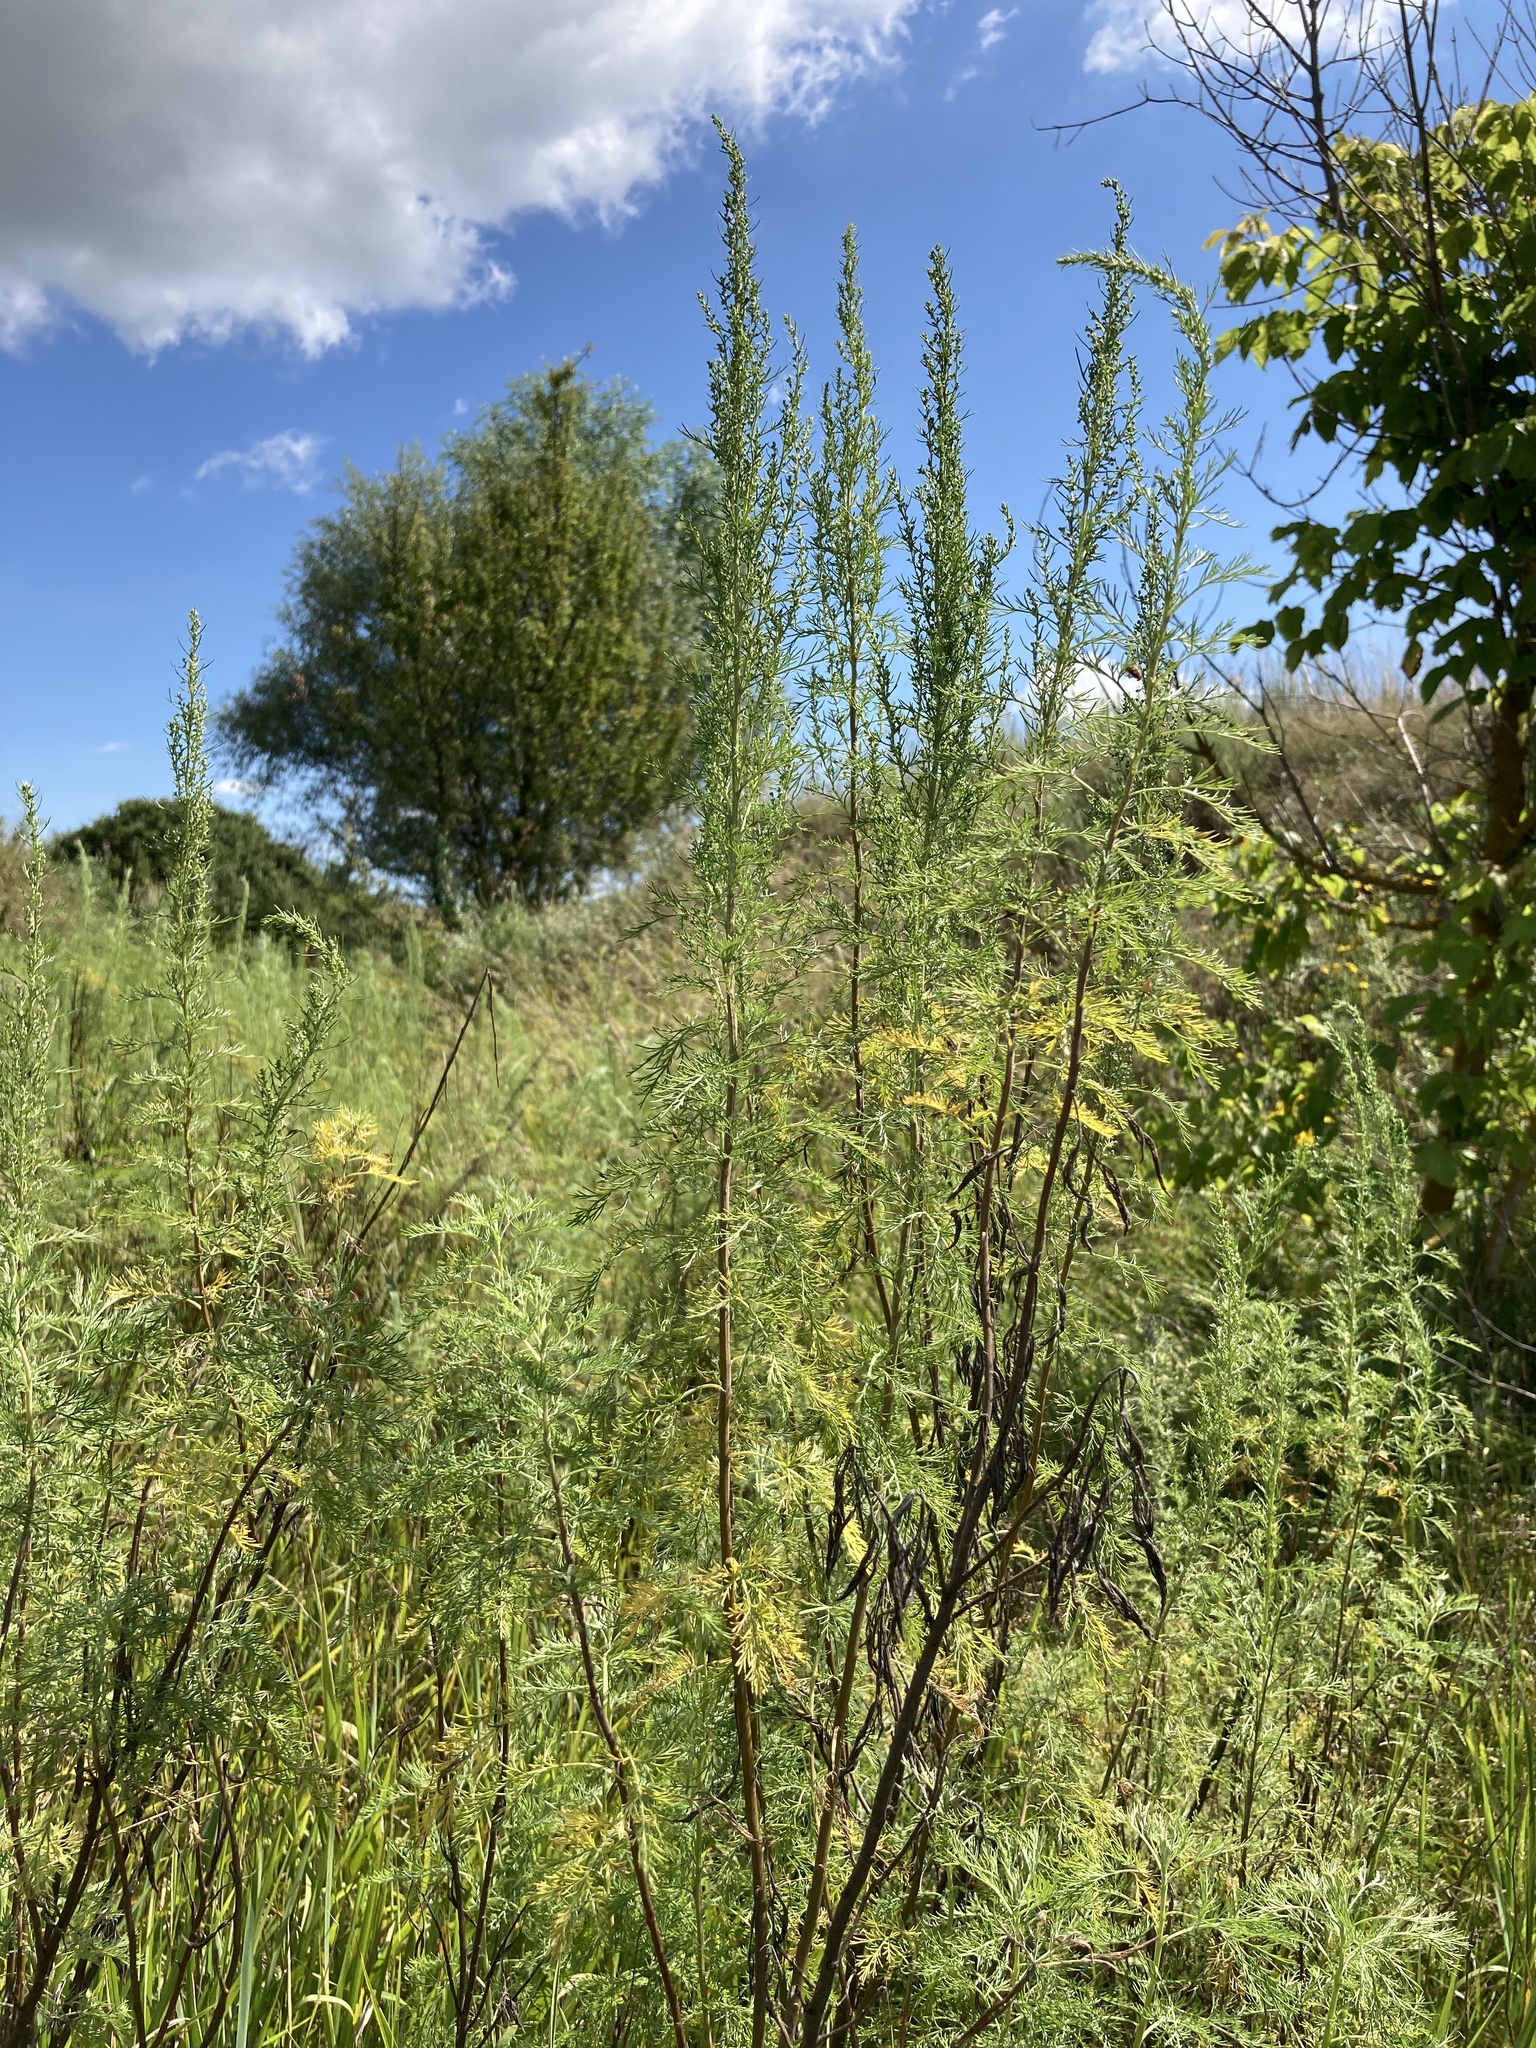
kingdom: Plantae
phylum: Tracheophyta
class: Magnoliopsida
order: Asterales
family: Asteraceae
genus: Artemisia
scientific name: Artemisia abrotanum
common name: Southernwood
